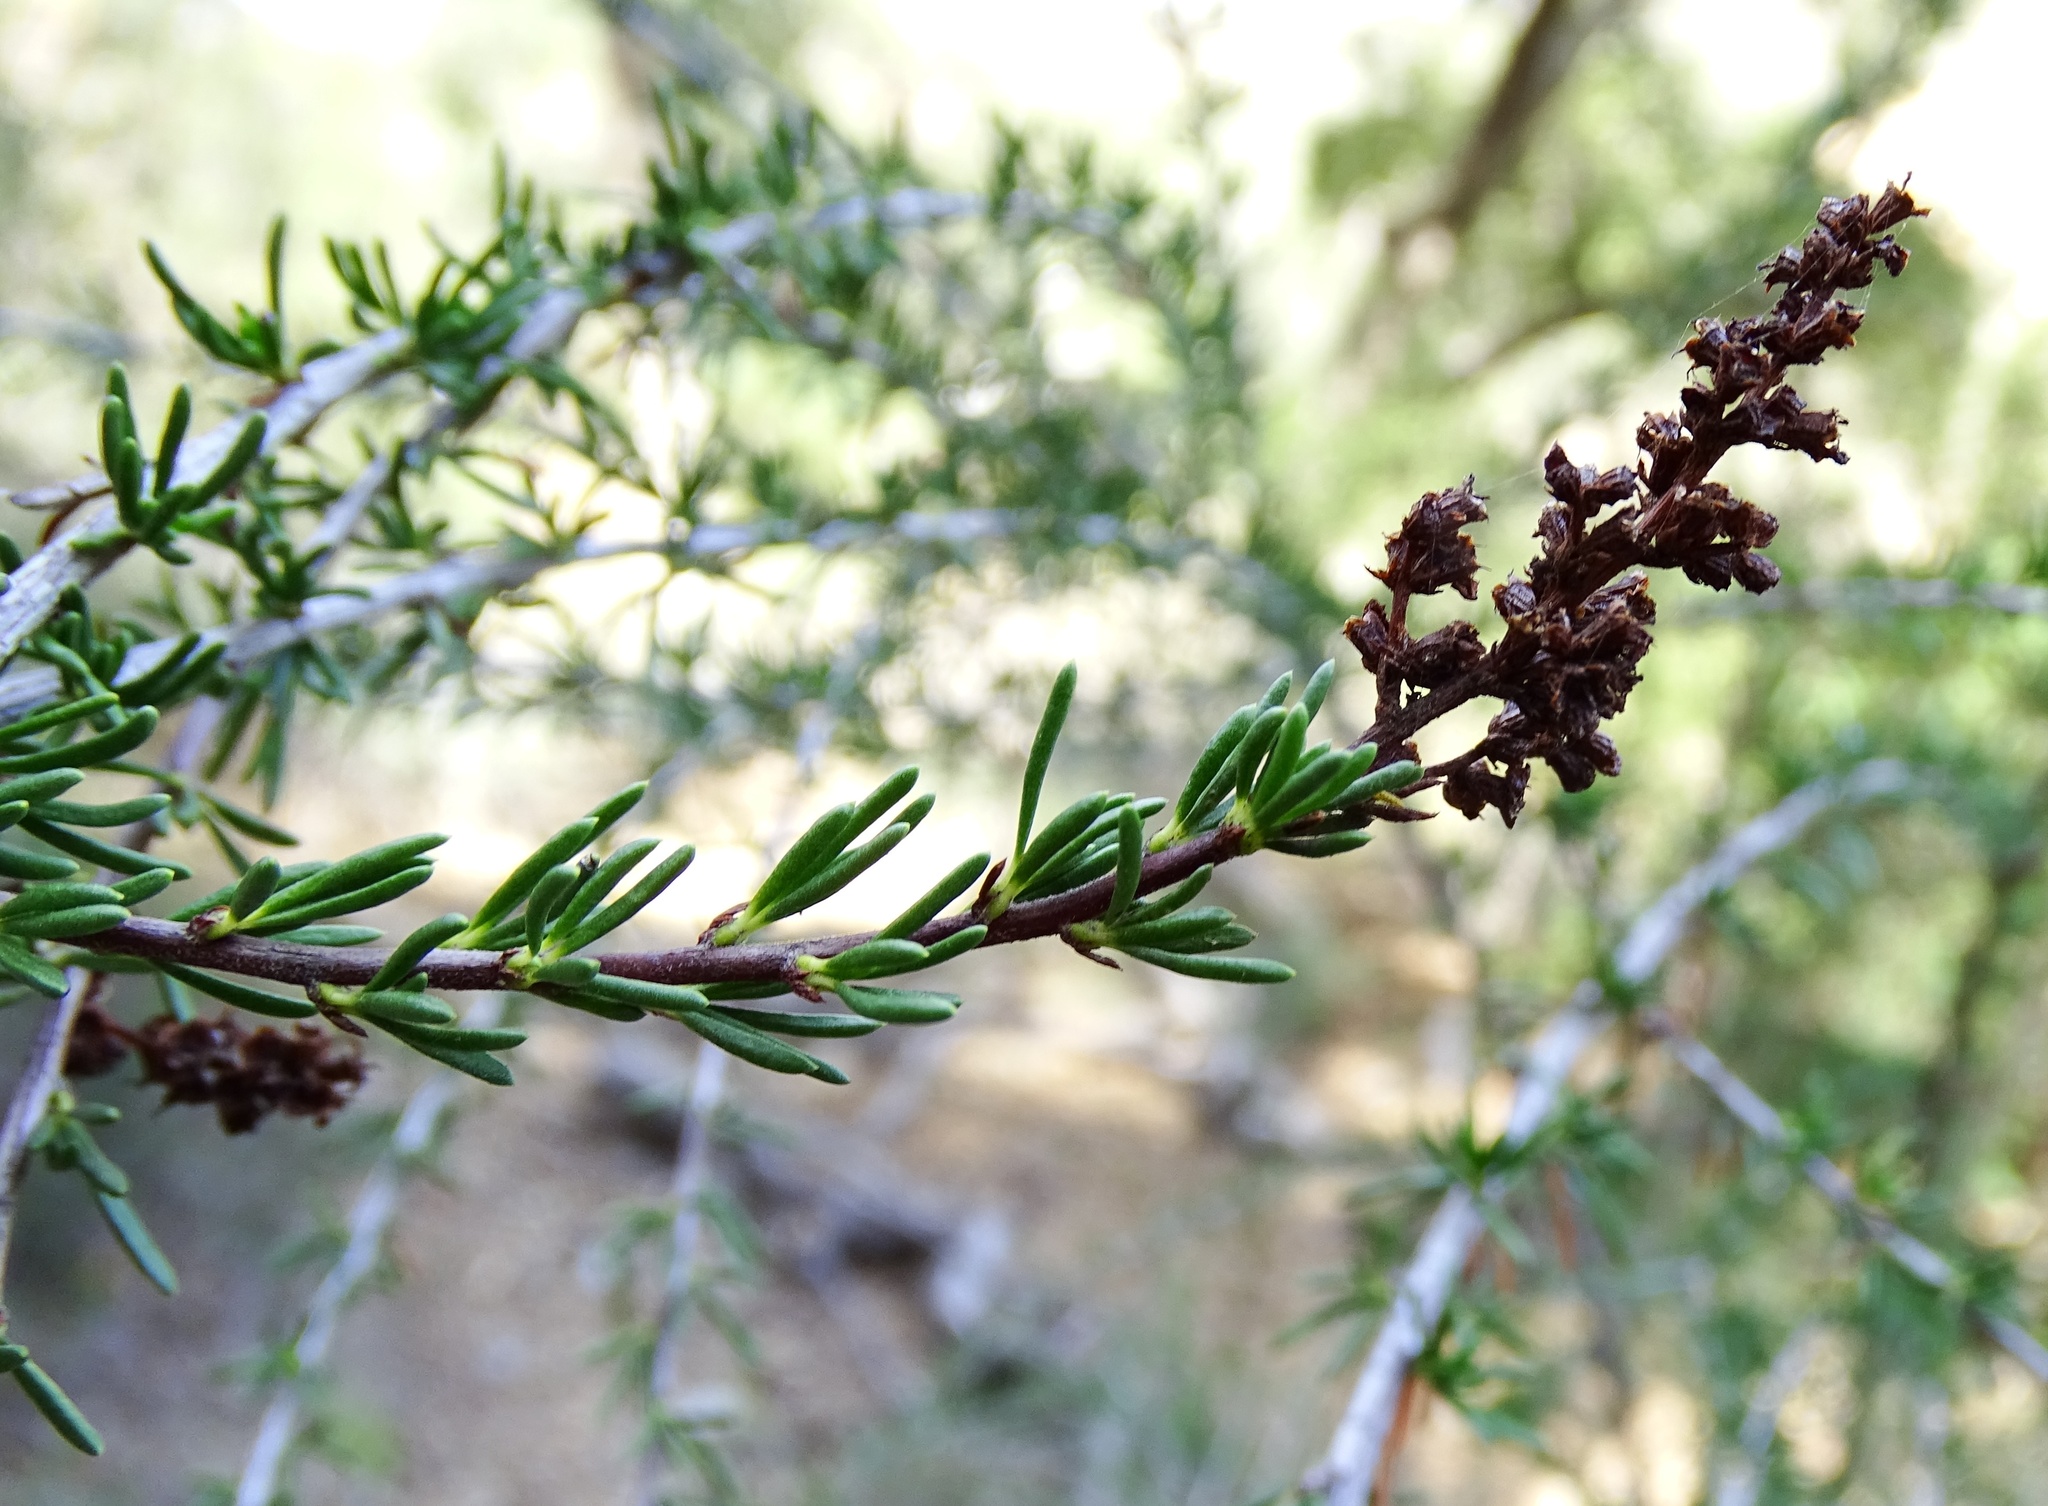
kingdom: Plantae
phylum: Tracheophyta
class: Magnoliopsida
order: Rosales
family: Rosaceae
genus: Adenostoma
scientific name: Adenostoma fasciculatum
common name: Chamise
